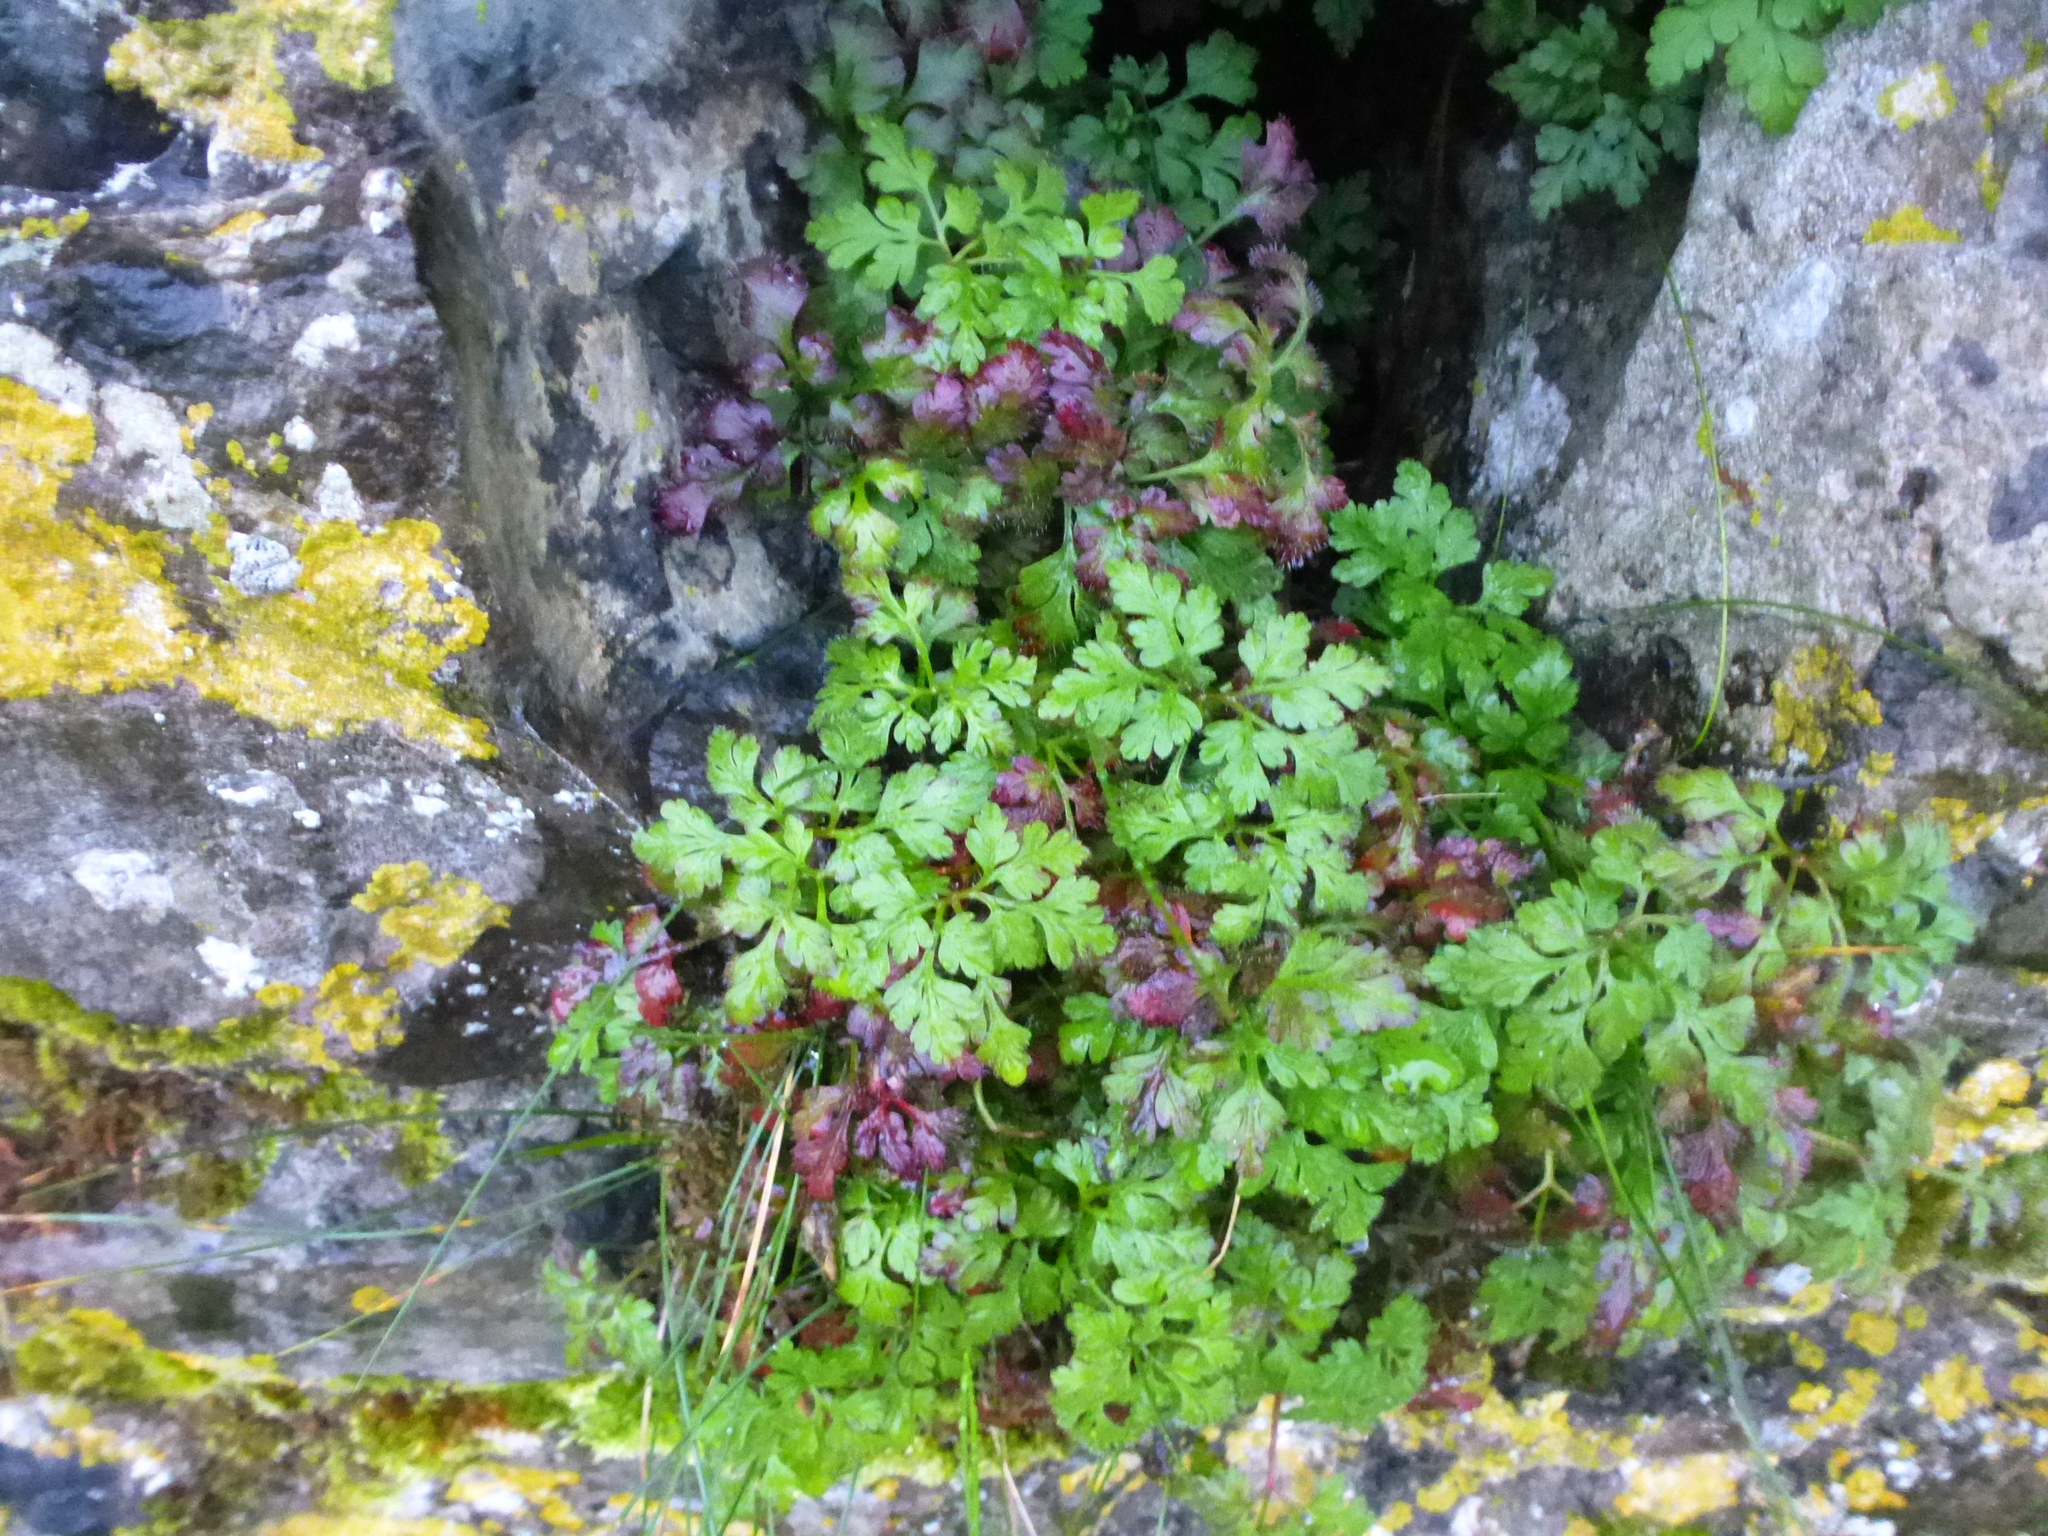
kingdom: Plantae
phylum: Tracheophyta
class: Magnoliopsida
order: Geraniales
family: Geraniaceae
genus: Geranium
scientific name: Geranium robertianum
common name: Herb-robert
